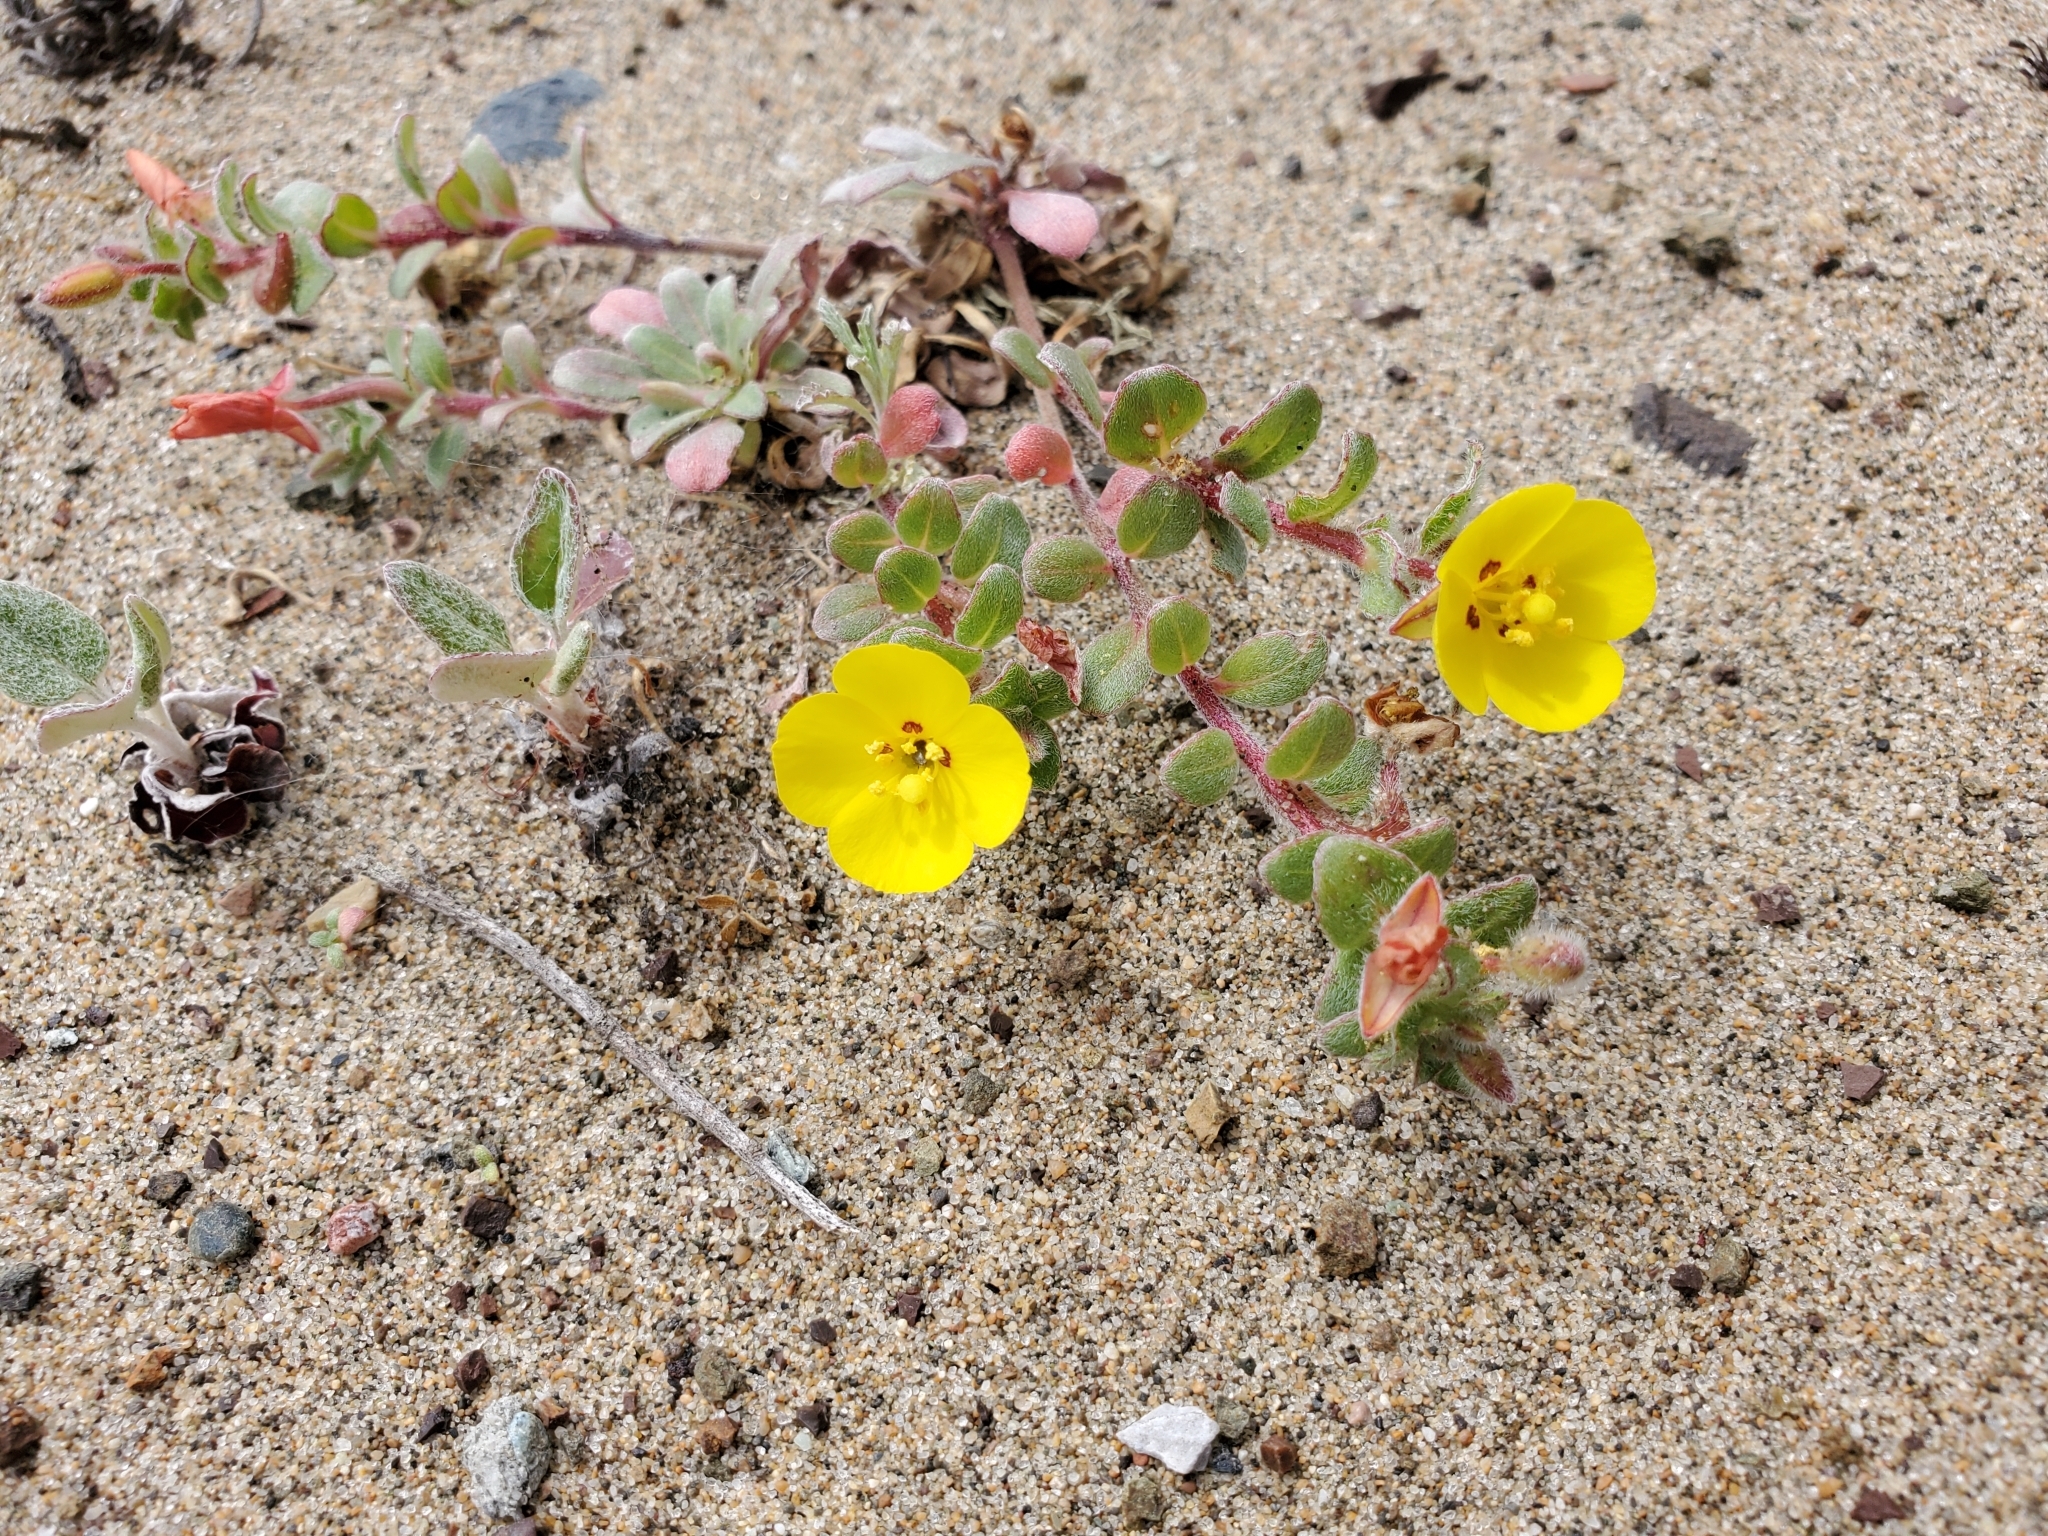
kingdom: Plantae
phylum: Tracheophyta
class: Magnoliopsida
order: Myrtales
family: Onagraceae
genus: Camissoniopsis
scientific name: Camissoniopsis cheiranthifolia
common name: Beach suncup
